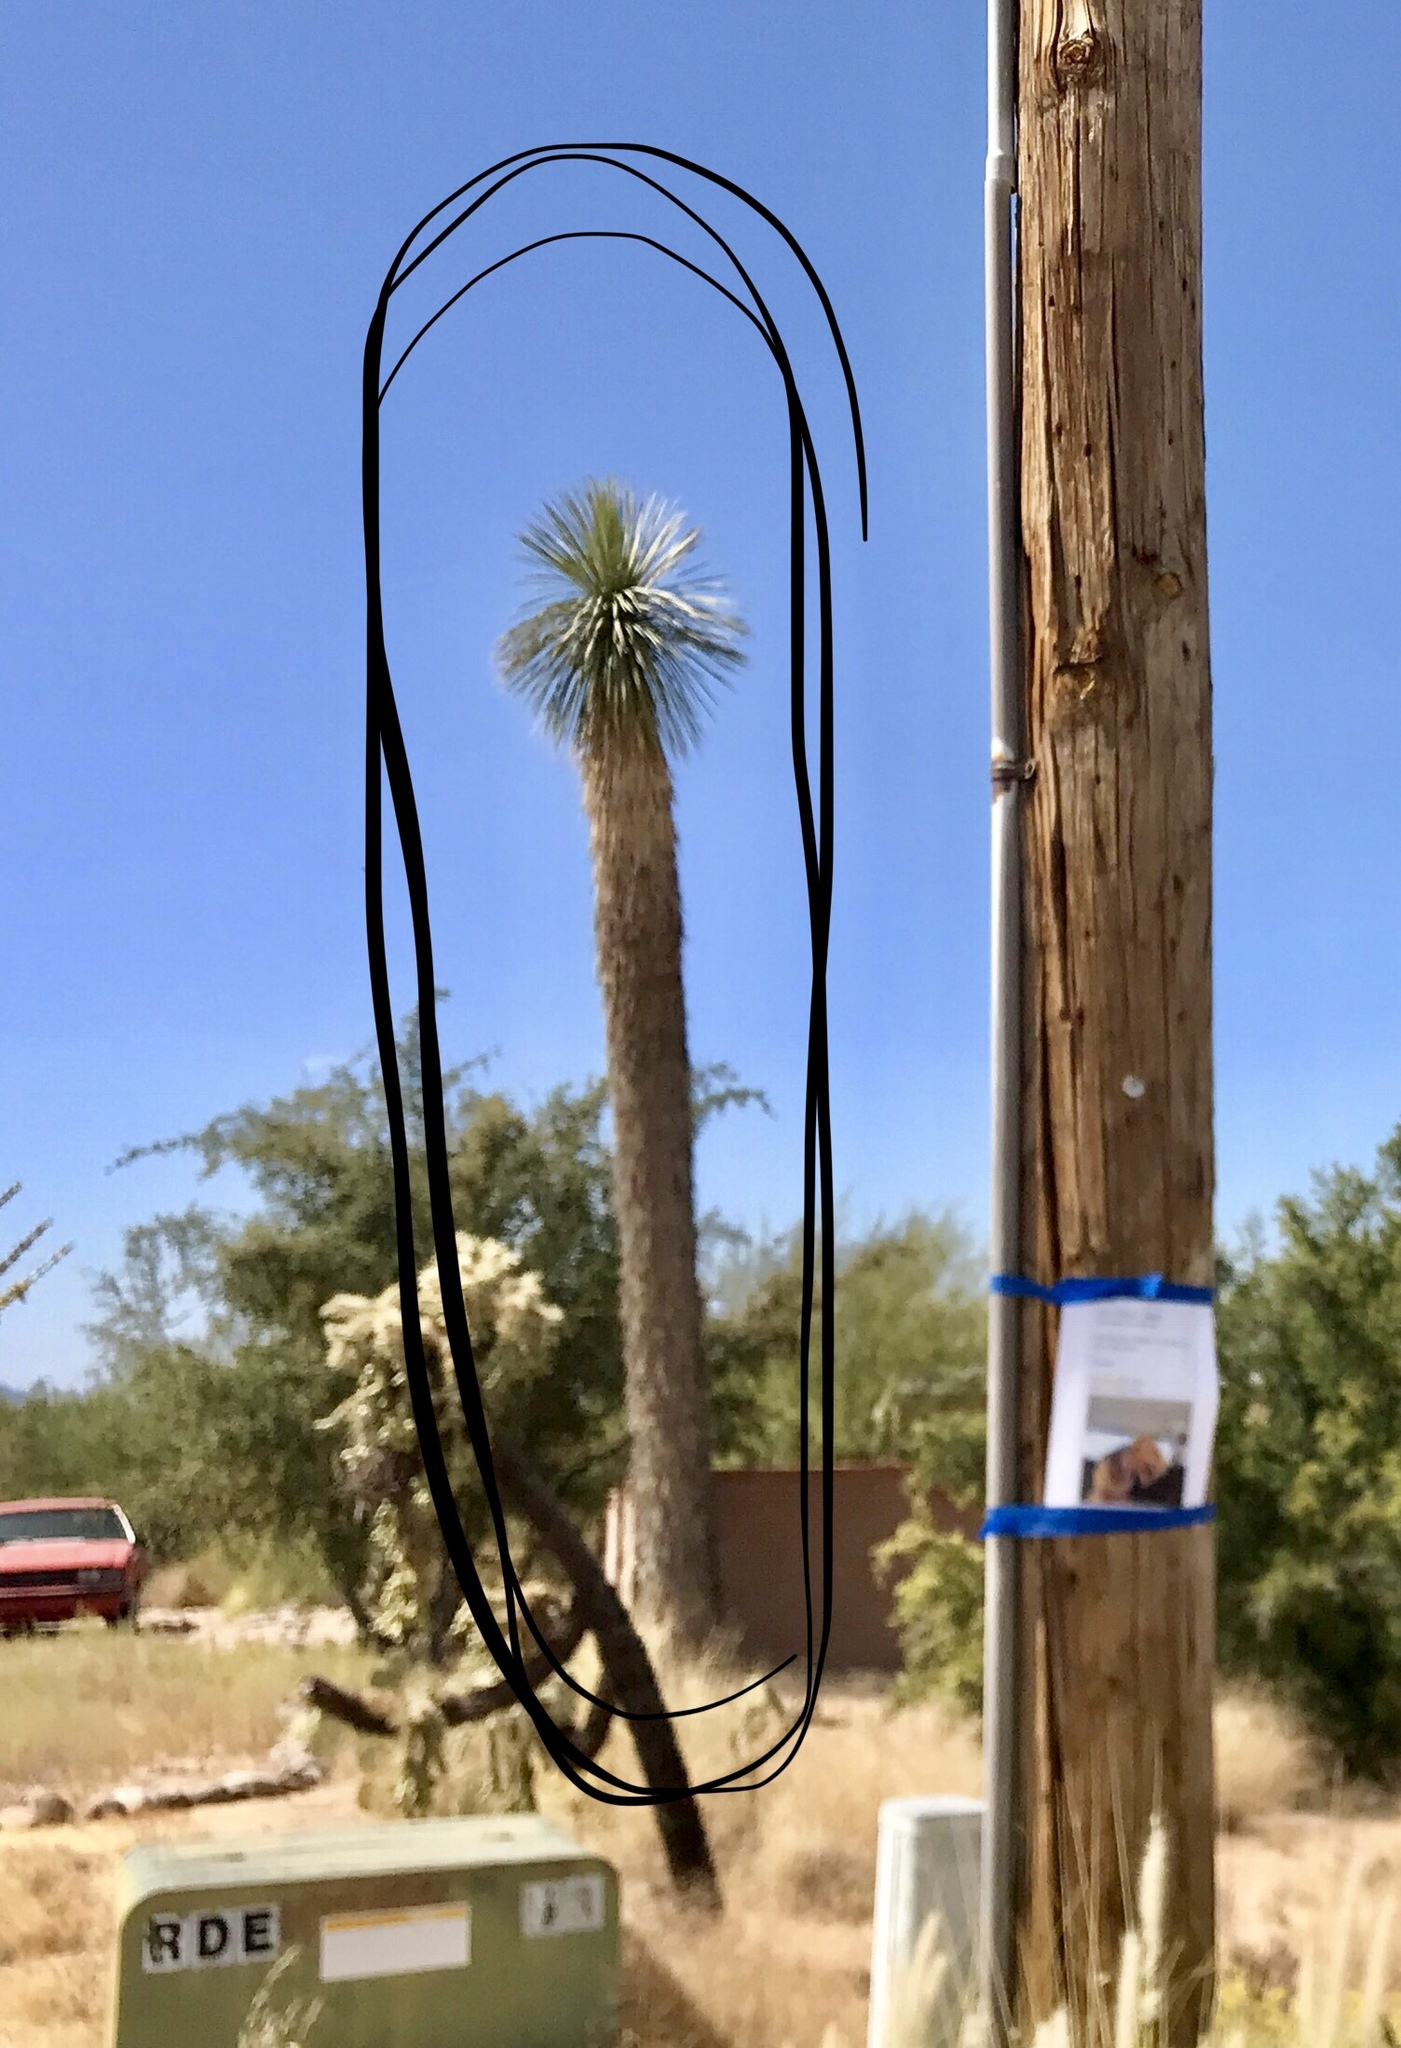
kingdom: Plantae
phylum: Tracheophyta
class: Liliopsida
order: Asparagales
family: Asparagaceae
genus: Yucca
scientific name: Yucca elata
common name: Palmella
